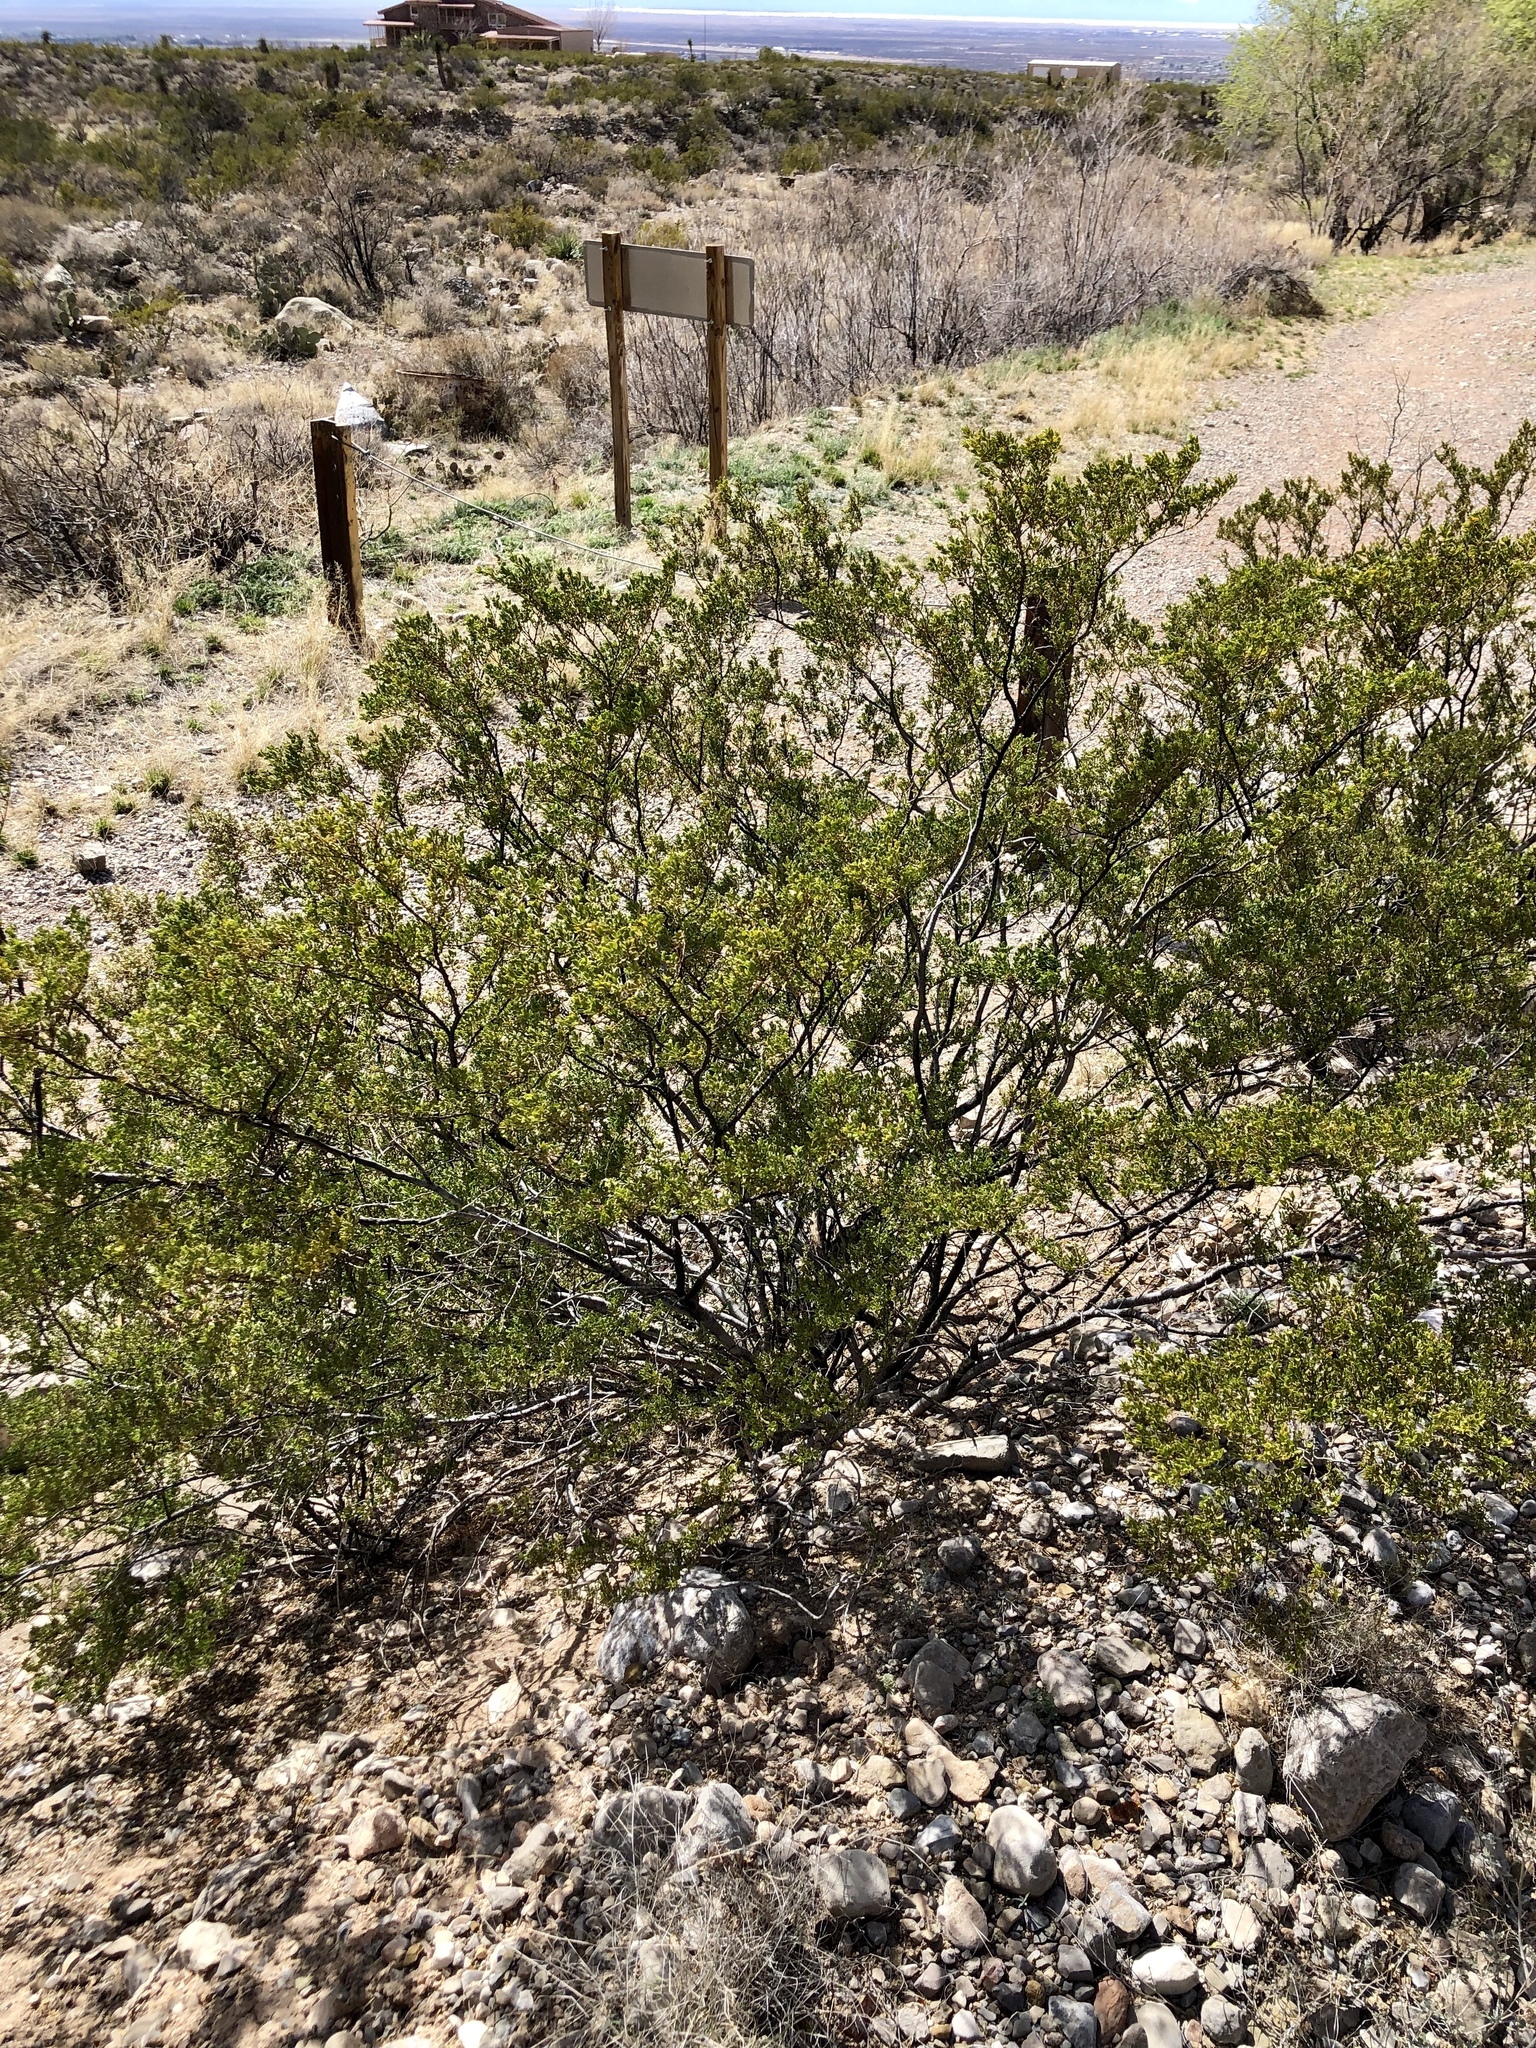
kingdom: Plantae
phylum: Tracheophyta
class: Magnoliopsida
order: Zygophyllales
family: Zygophyllaceae
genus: Larrea
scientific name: Larrea tridentata
